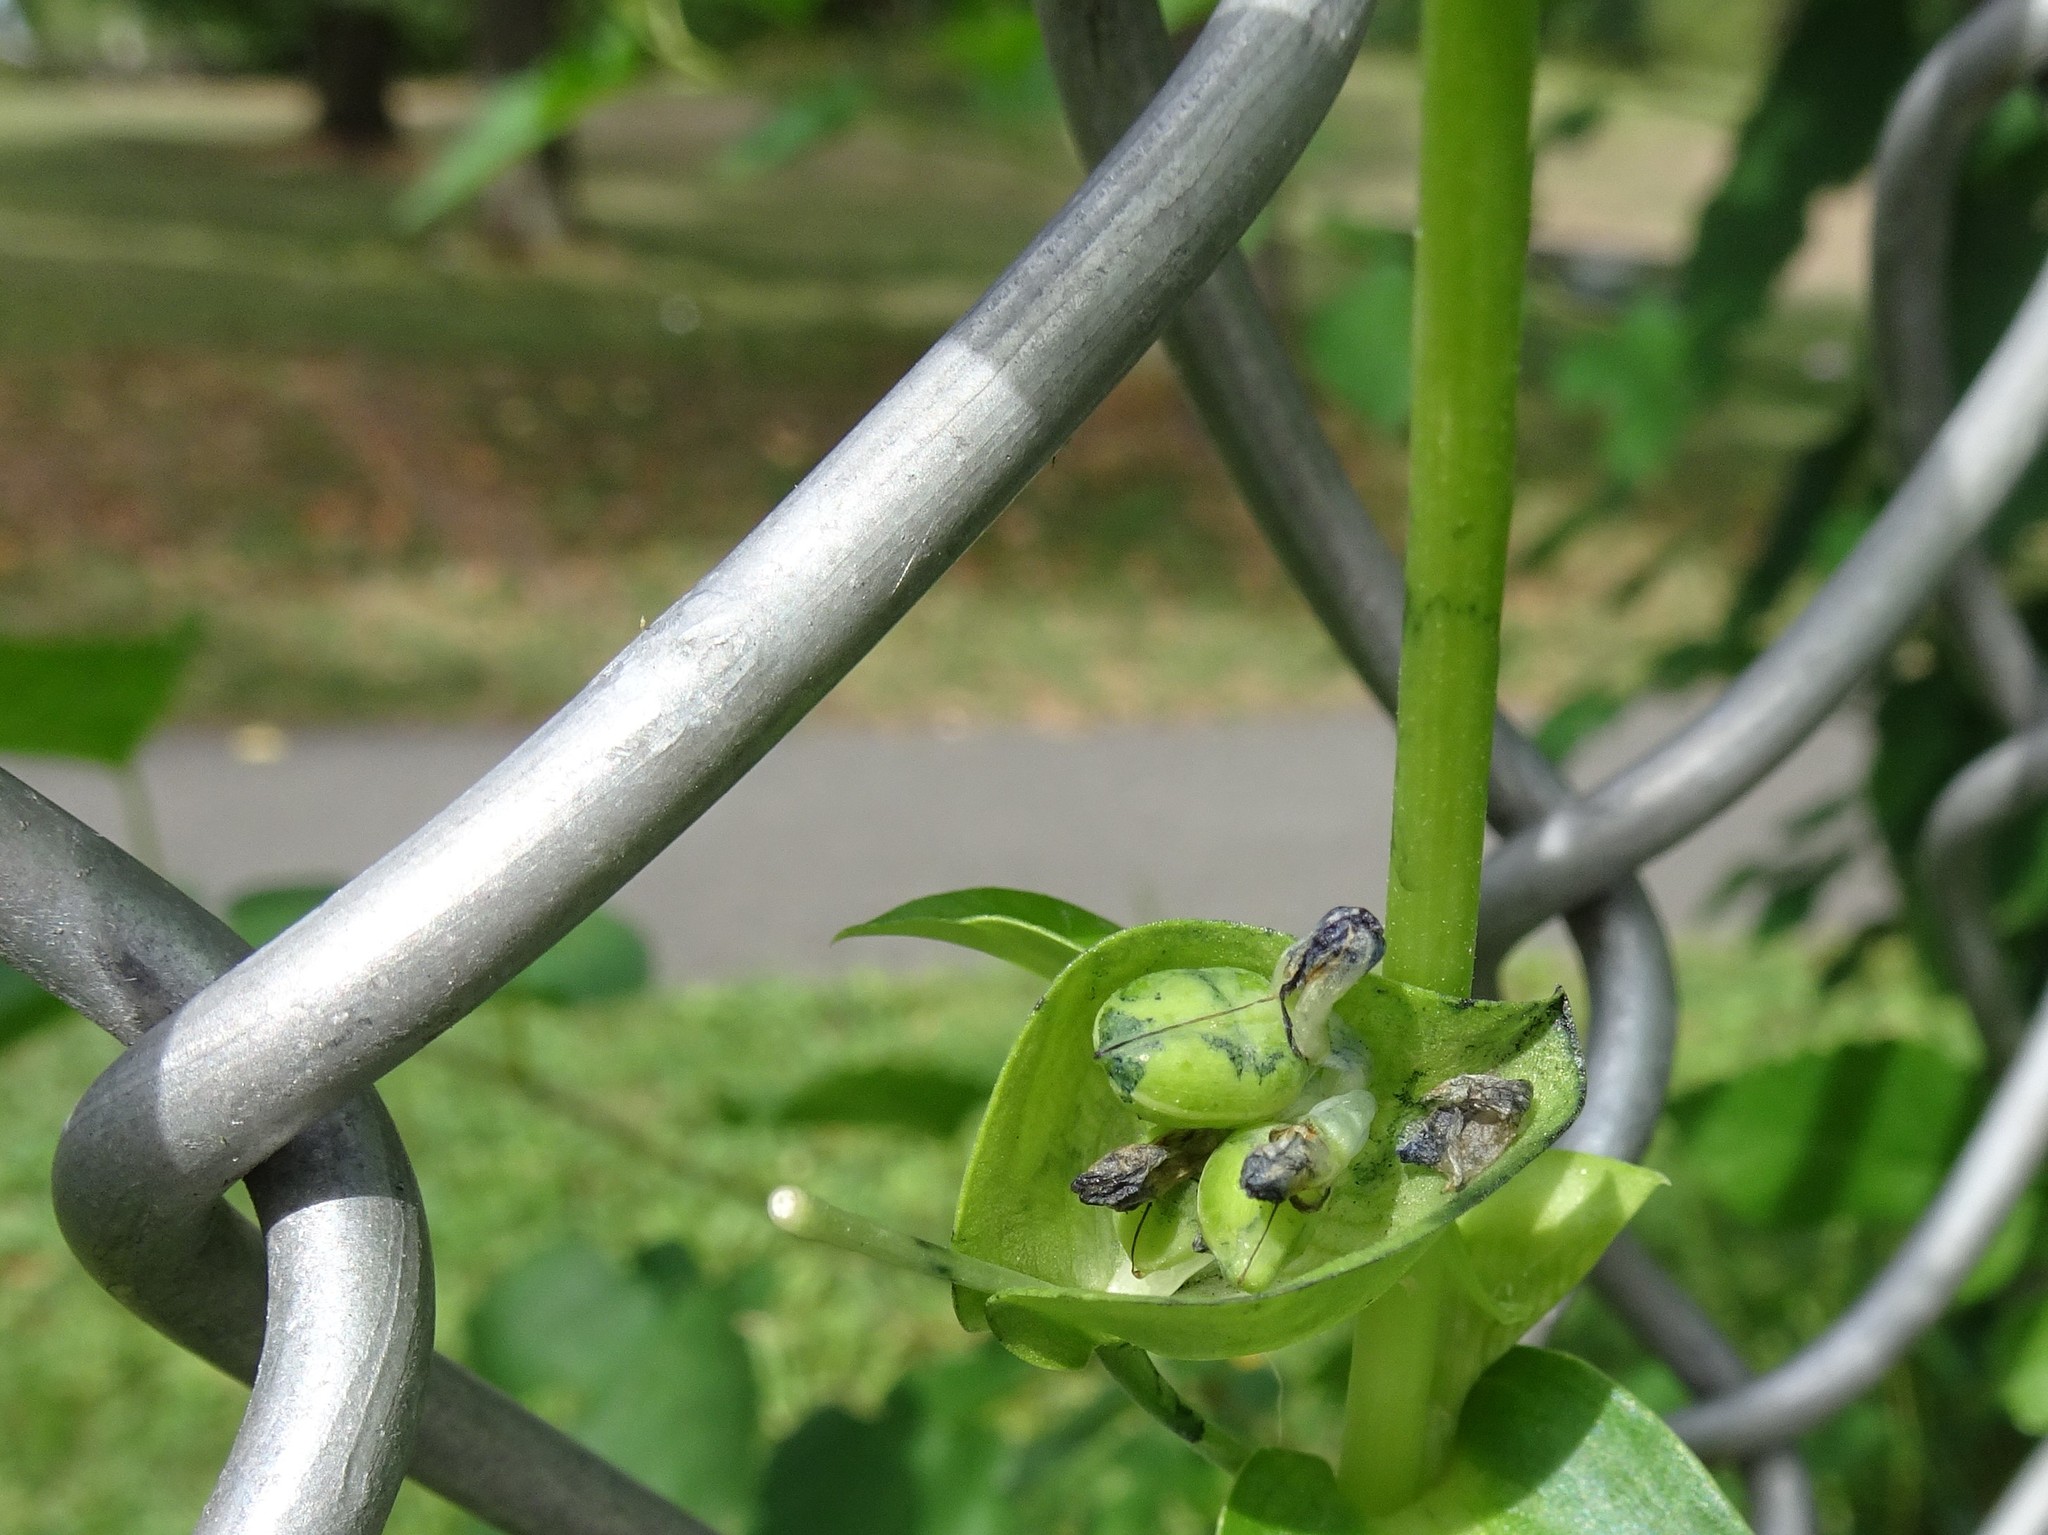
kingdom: Plantae
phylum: Tracheophyta
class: Liliopsida
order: Commelinales
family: Commelinaceae
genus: Commelina
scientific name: Commelina communis
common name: Asiatic dayflower
